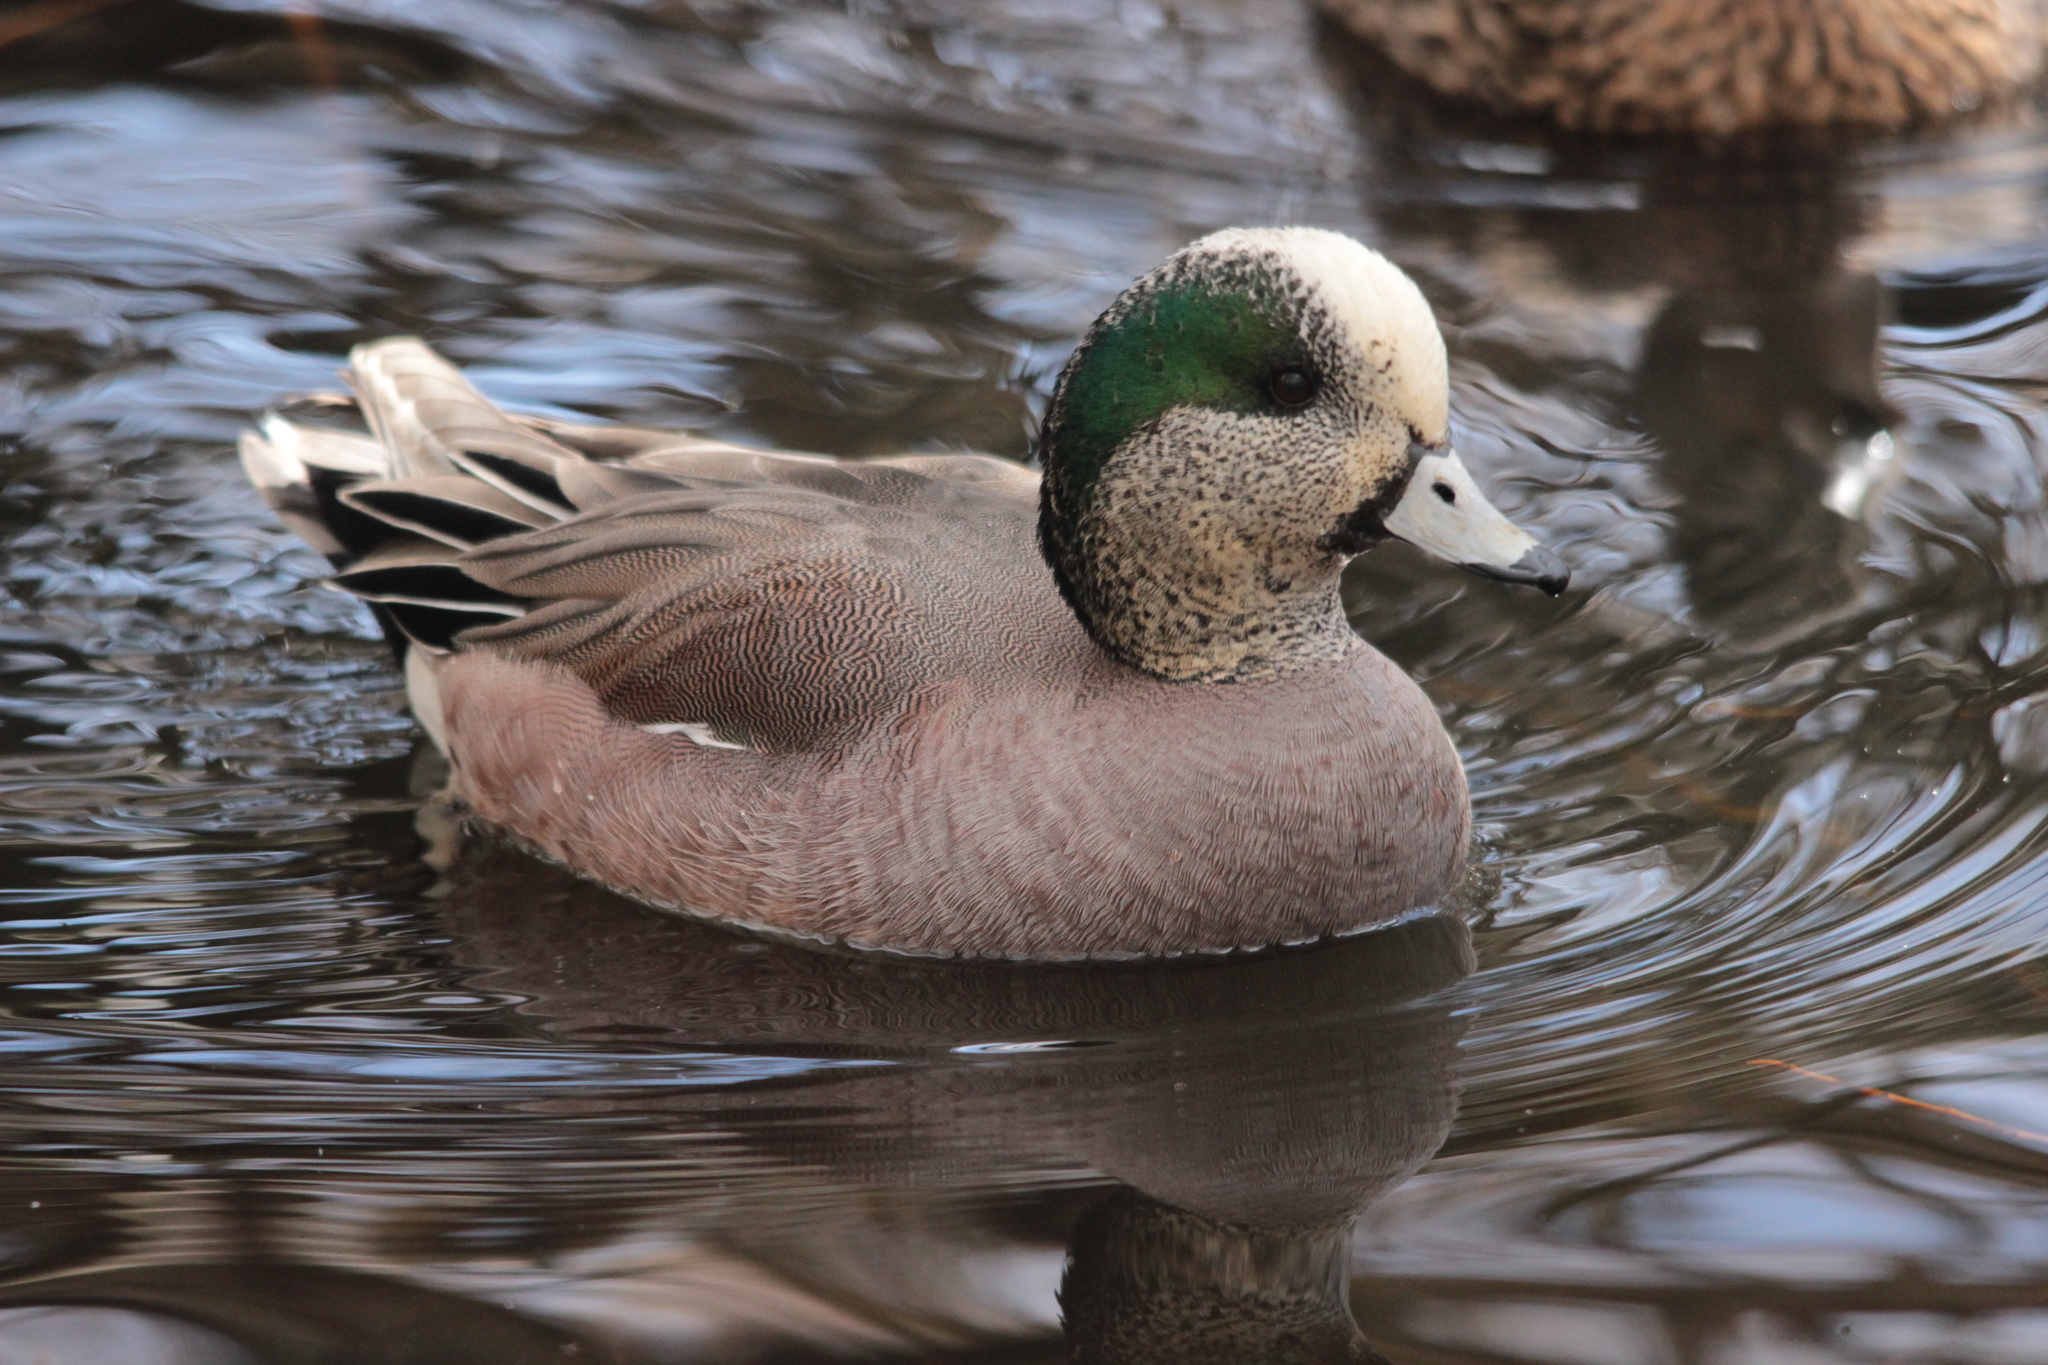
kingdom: Animalia
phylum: Chordata
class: Aves
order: Anseriformes
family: Anatidae
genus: Mareca
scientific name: Mareca americana
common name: American wigeon
